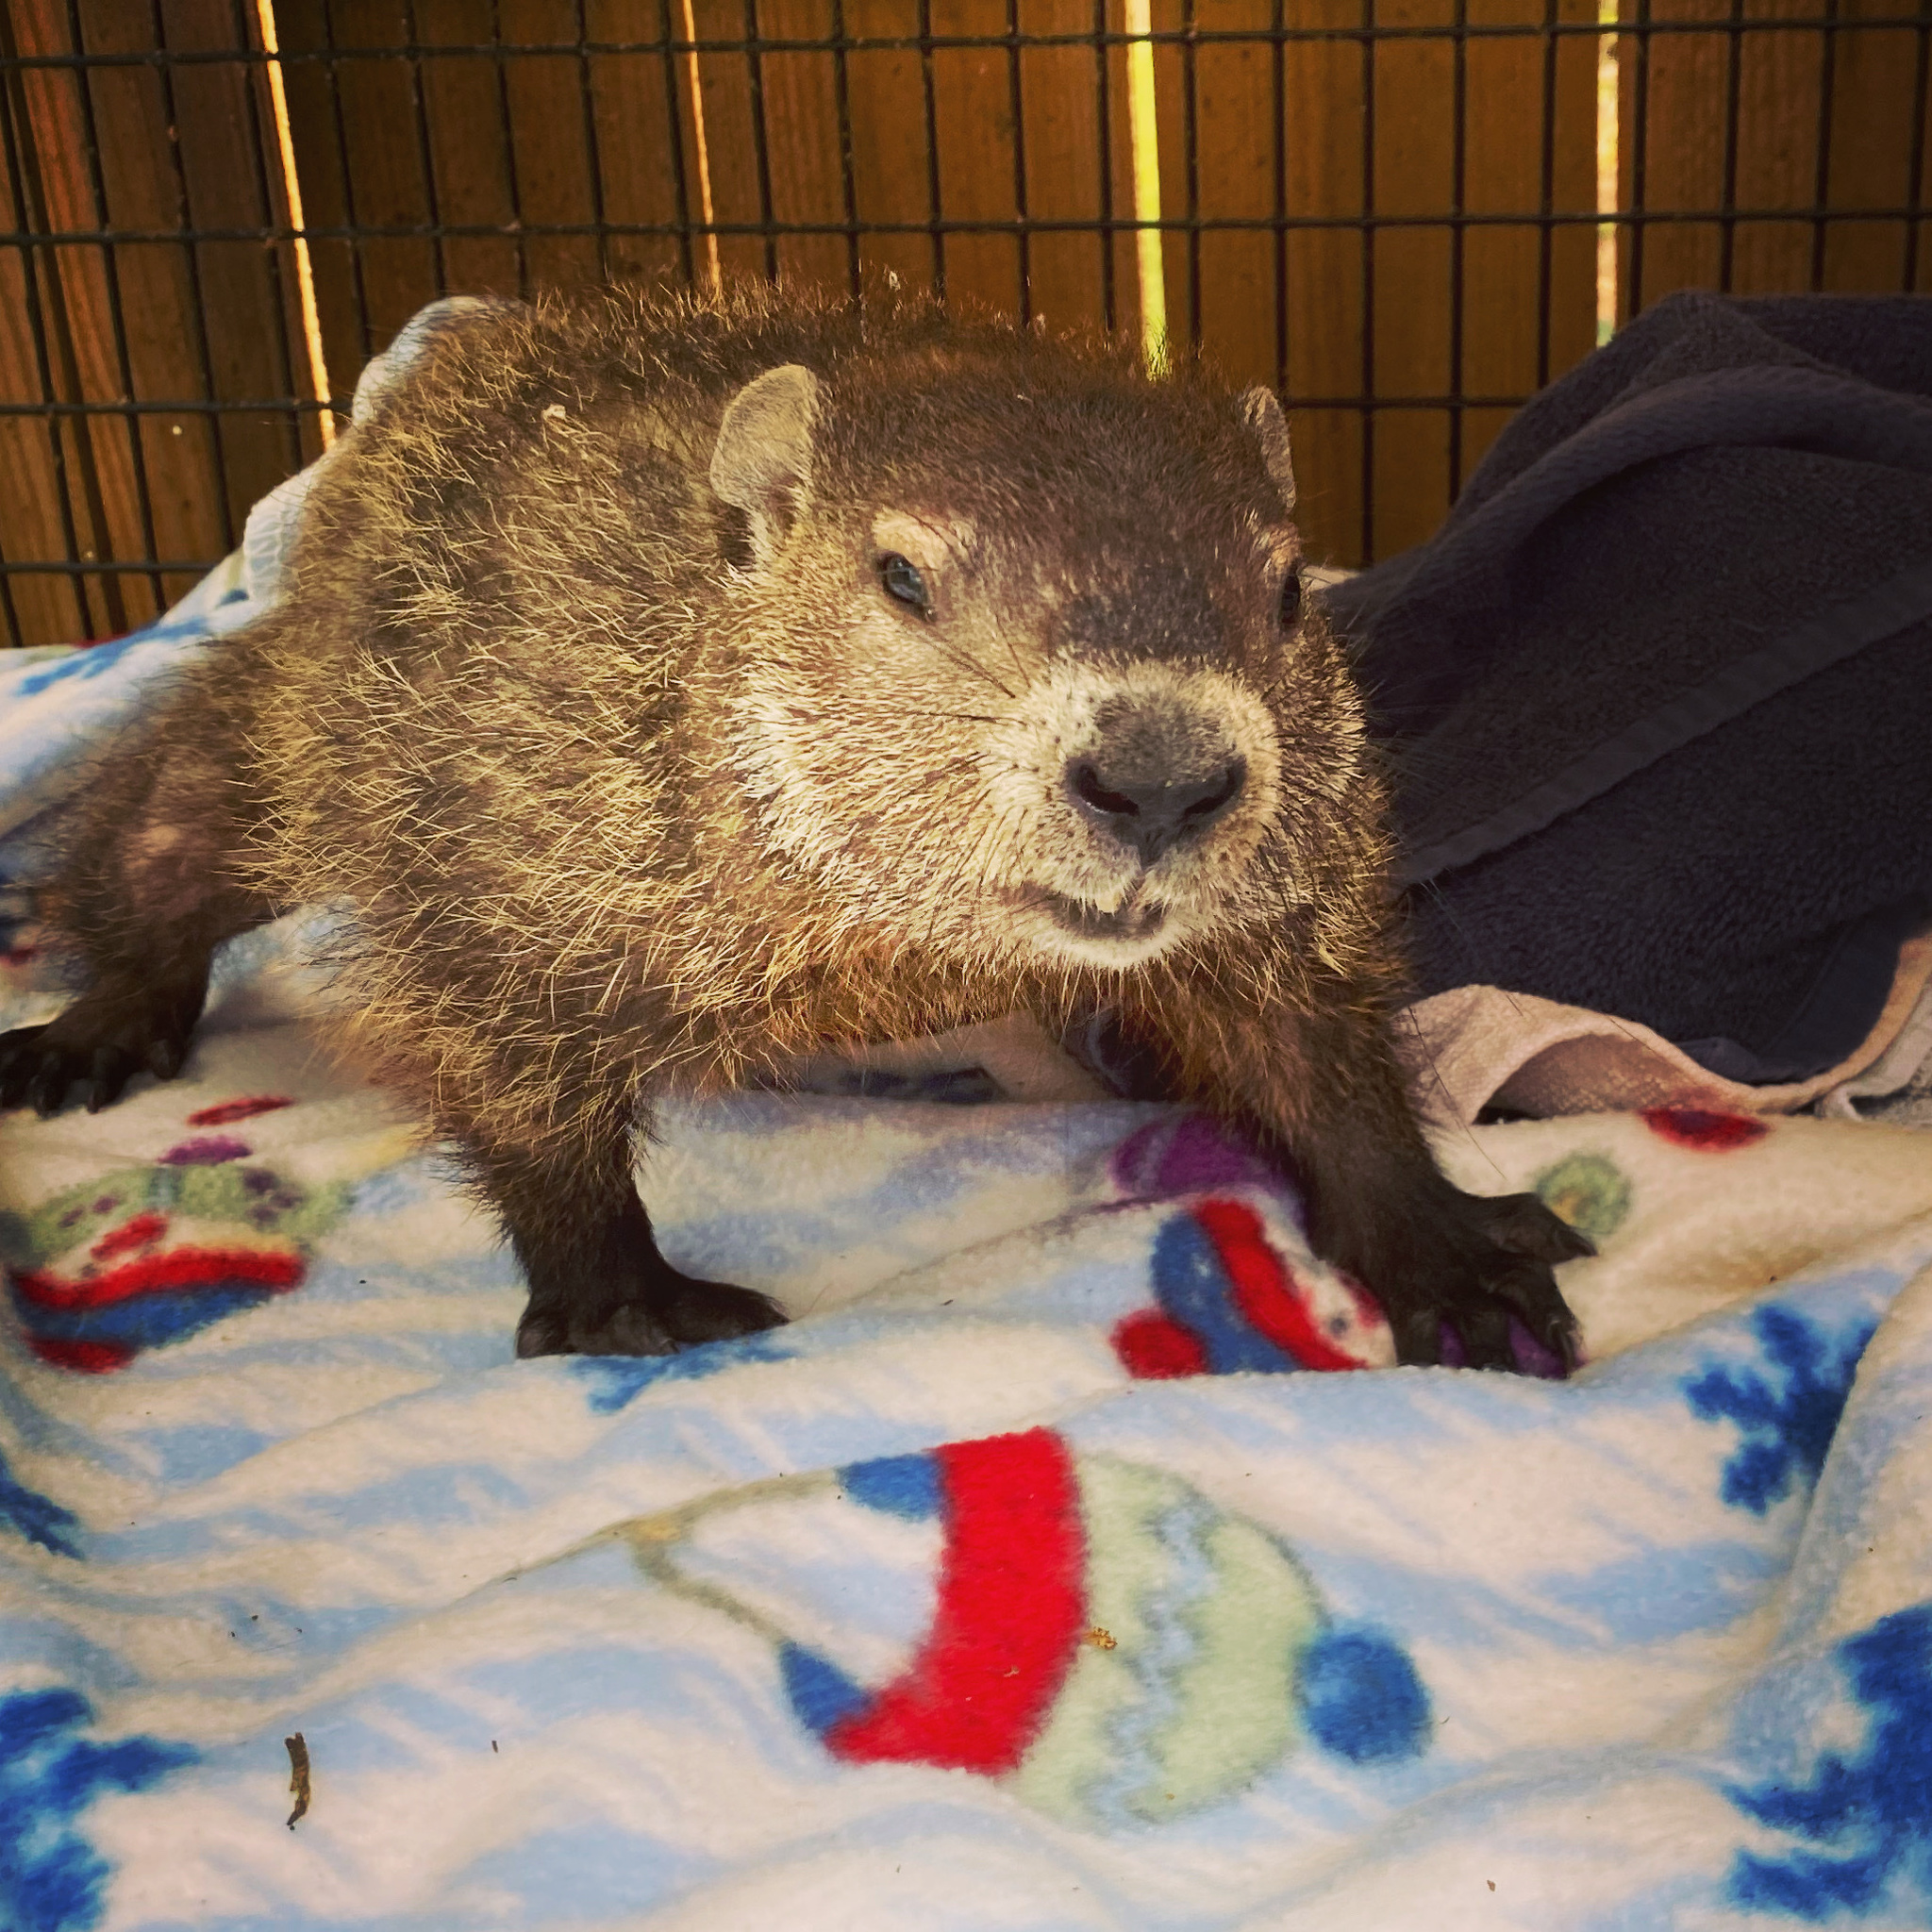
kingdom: Animalia
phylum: Chordata
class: Mammalia
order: Rodentia
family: Sciuridae
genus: Marmota
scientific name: Marmota monax
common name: Groundhog
